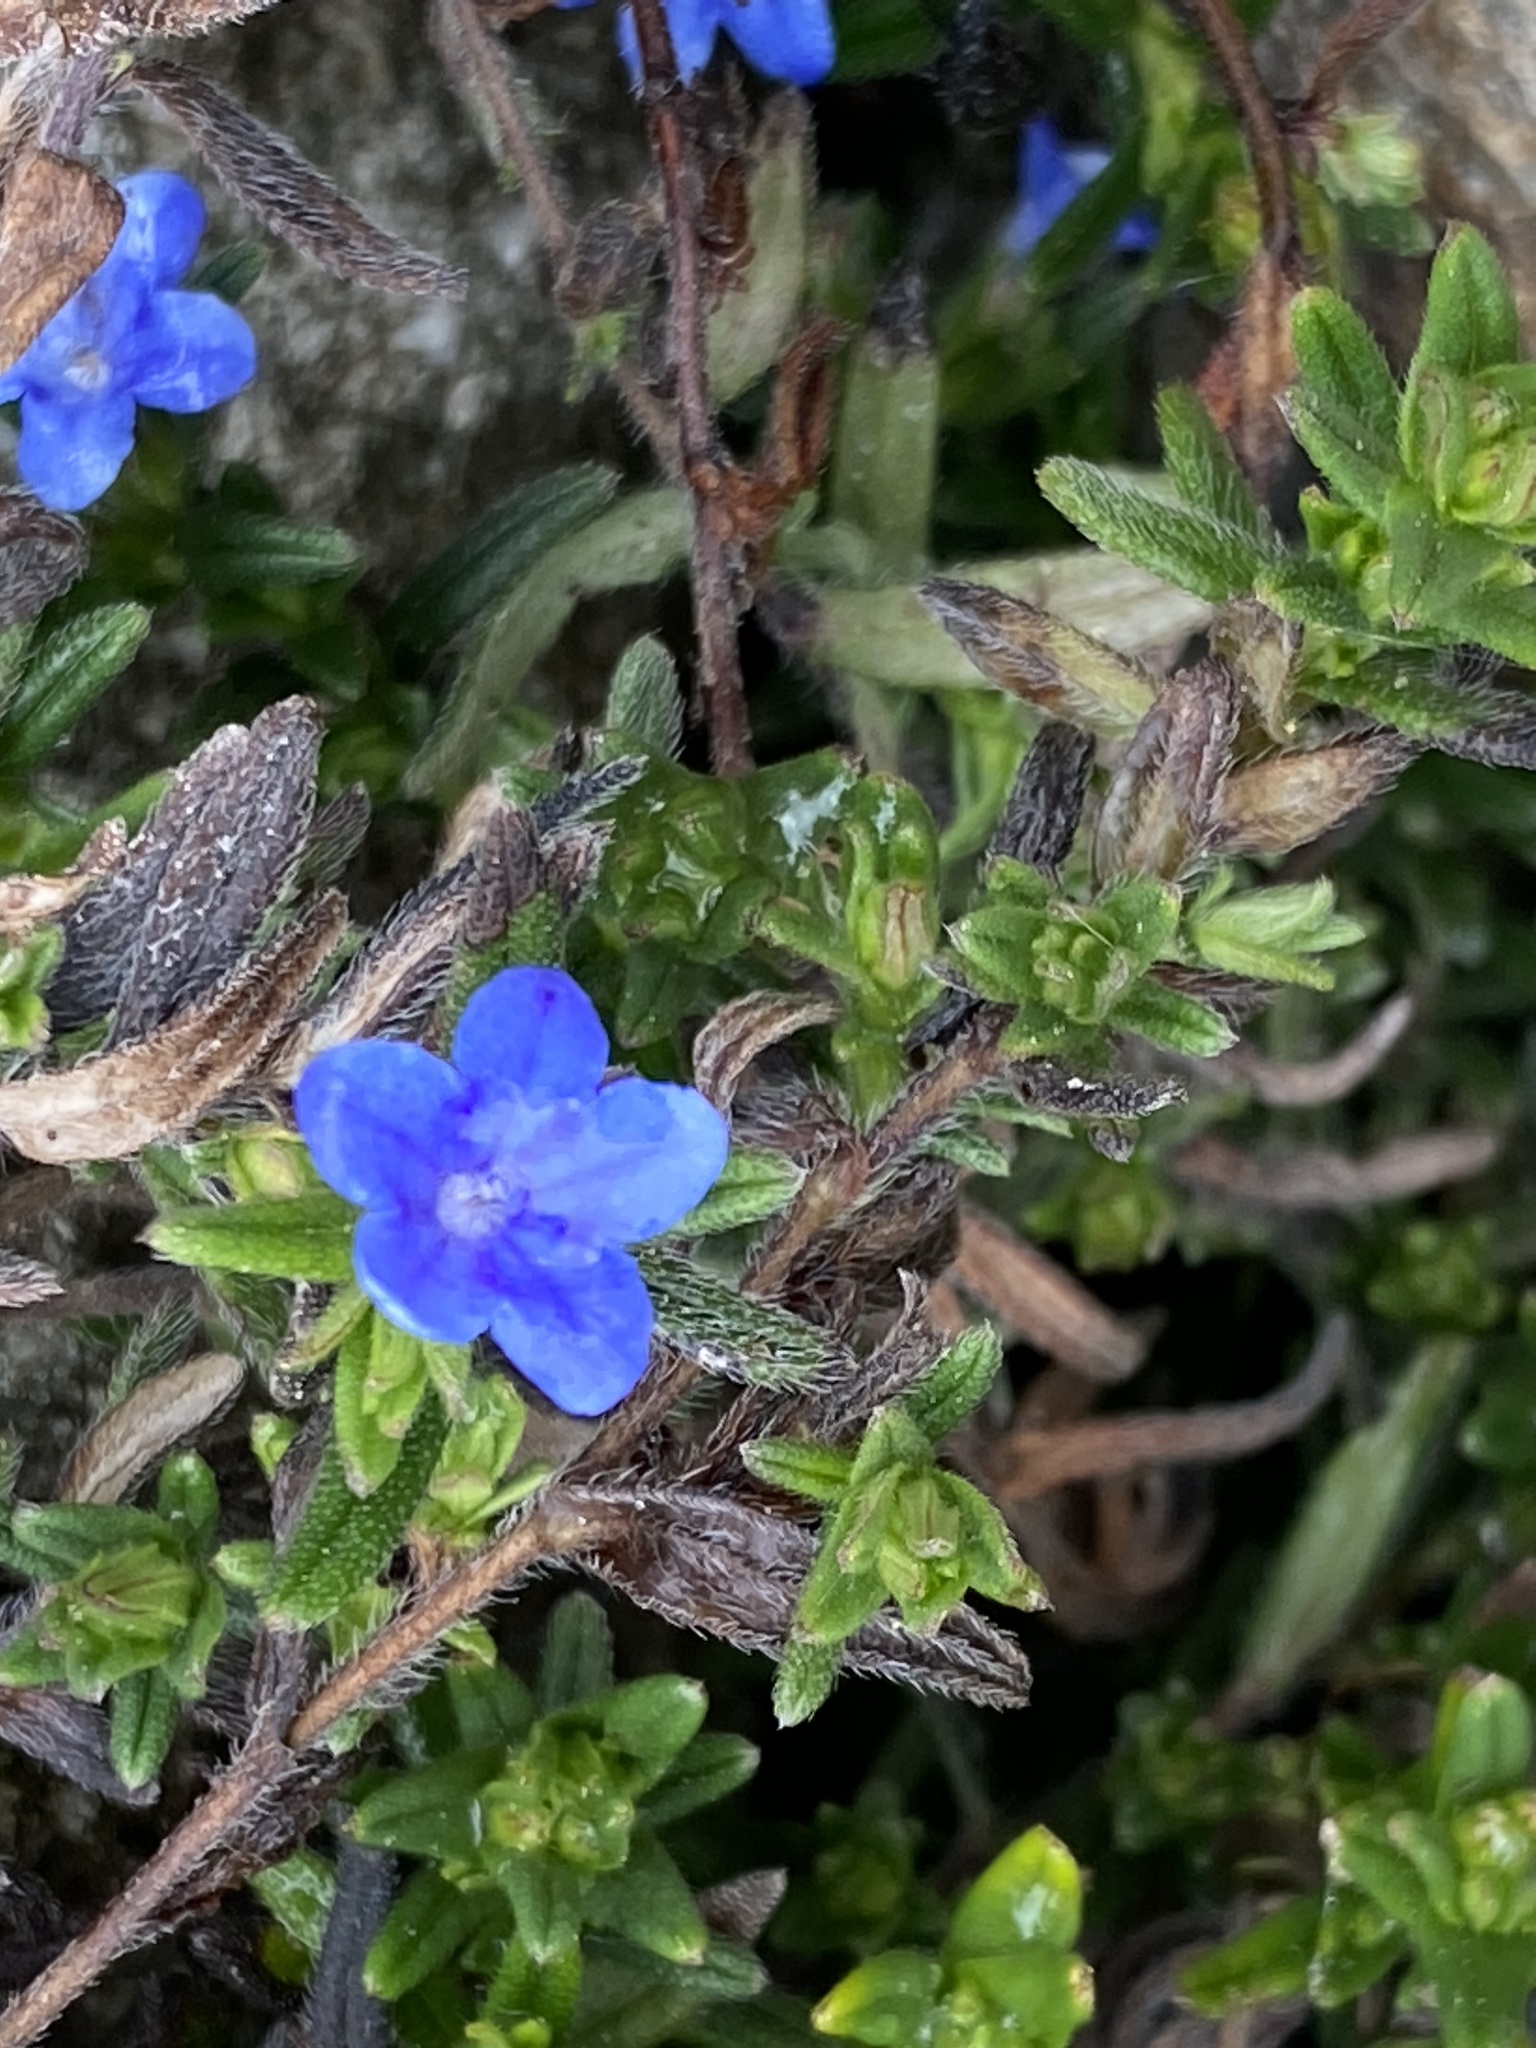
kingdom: Plantae
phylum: Tracheophyta
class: Magnoliopsida
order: Boraginales
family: Boraginaceae
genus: Aegonychon
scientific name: Aegonychon purpurocaeruleum
